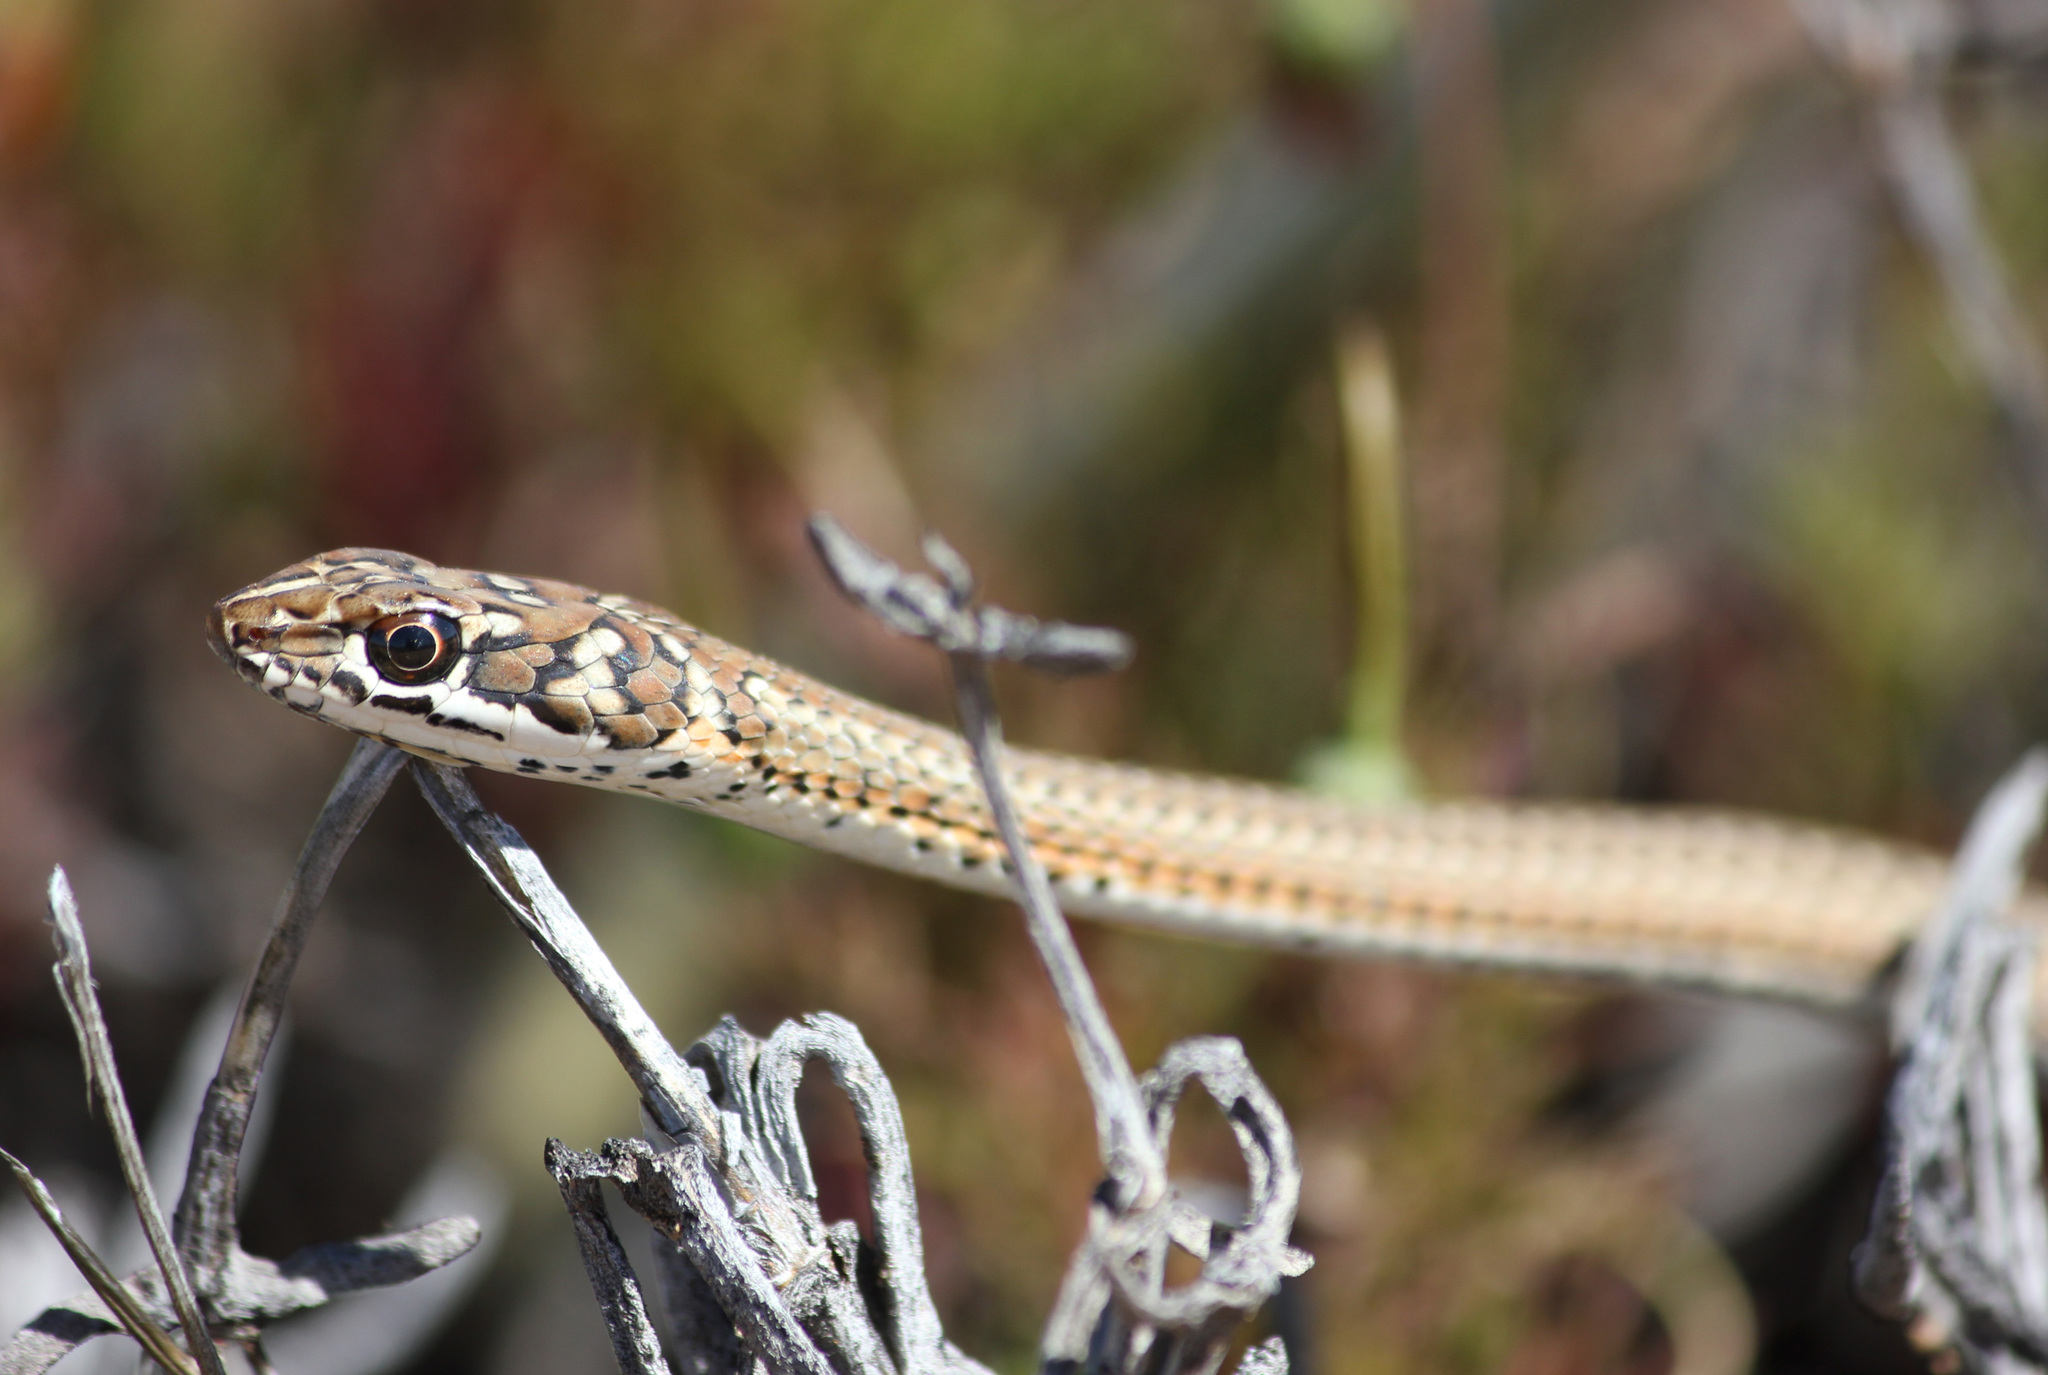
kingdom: Animalia
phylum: Chordata
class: Squamata
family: Psammophiidae
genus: Psammophis
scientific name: Psammophis notostictus
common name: Karoo sand snake
